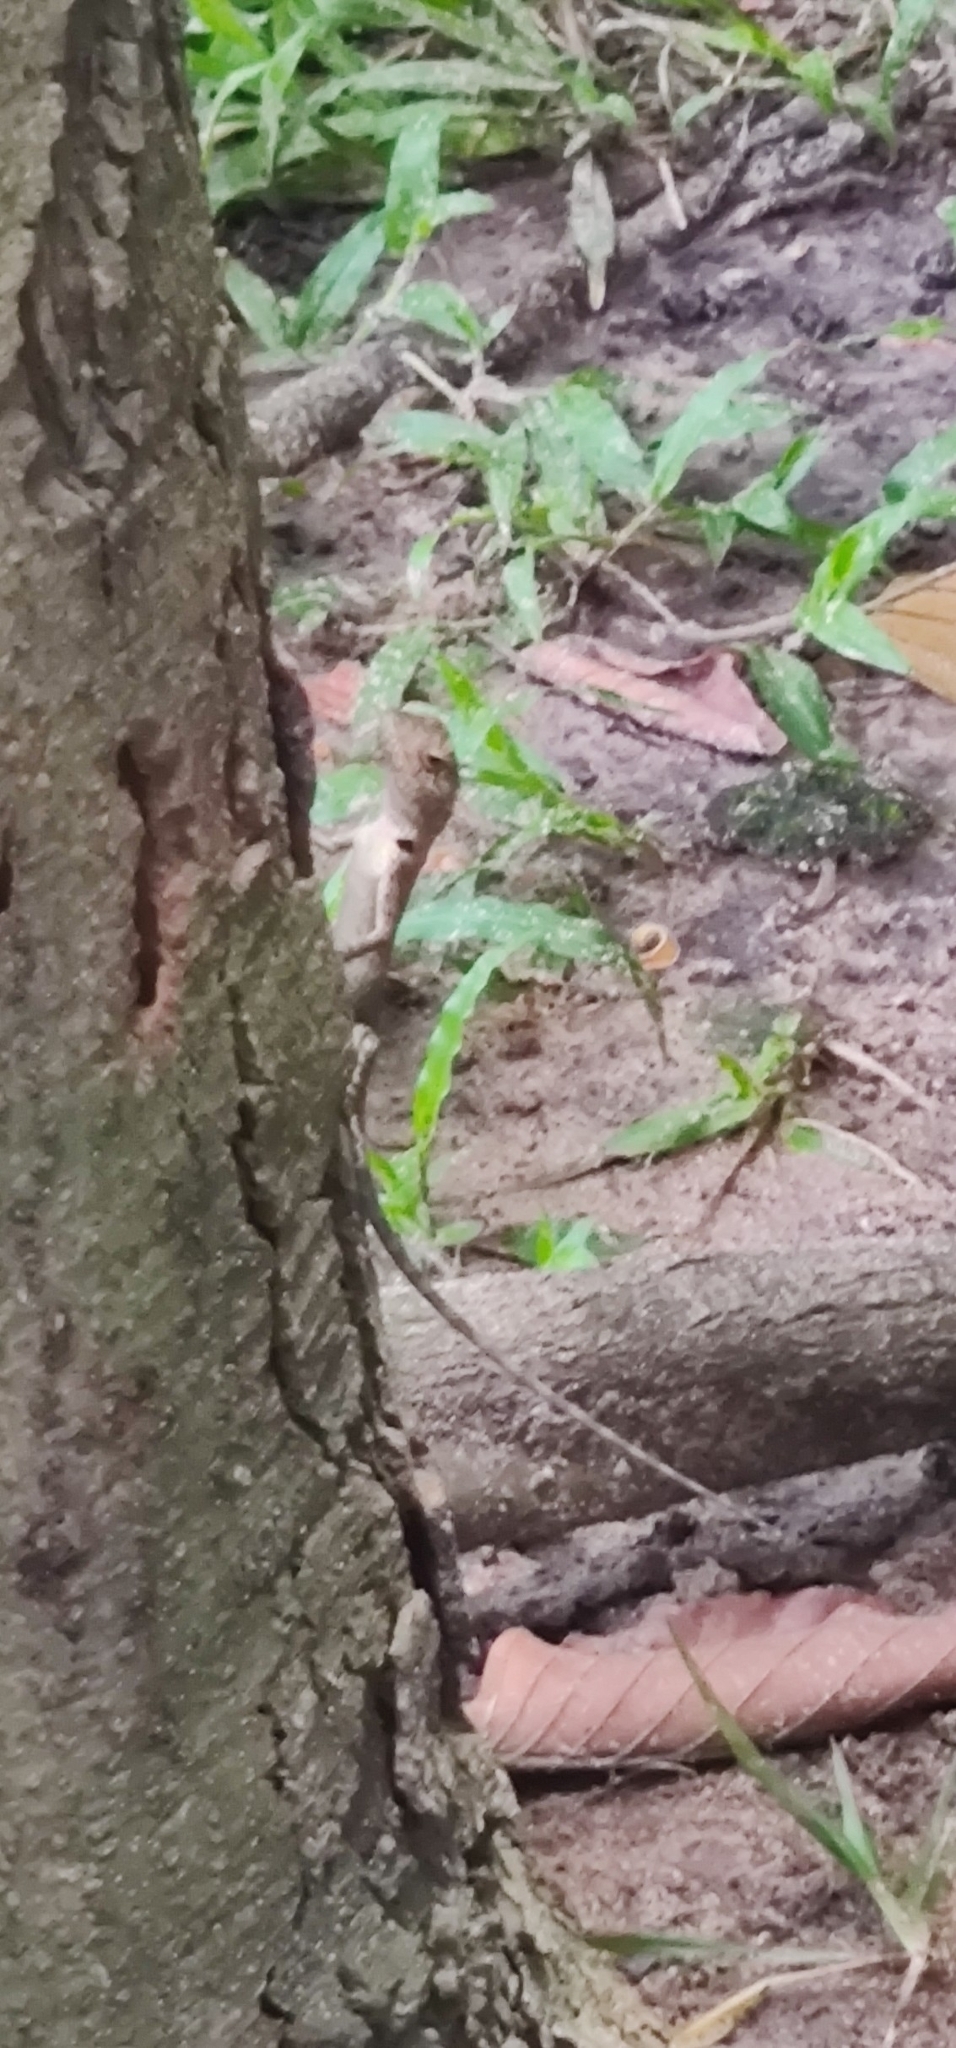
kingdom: Animalia
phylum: Chordata
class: Squamata
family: Agamidae
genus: Calotes
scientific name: Calotes bachae
